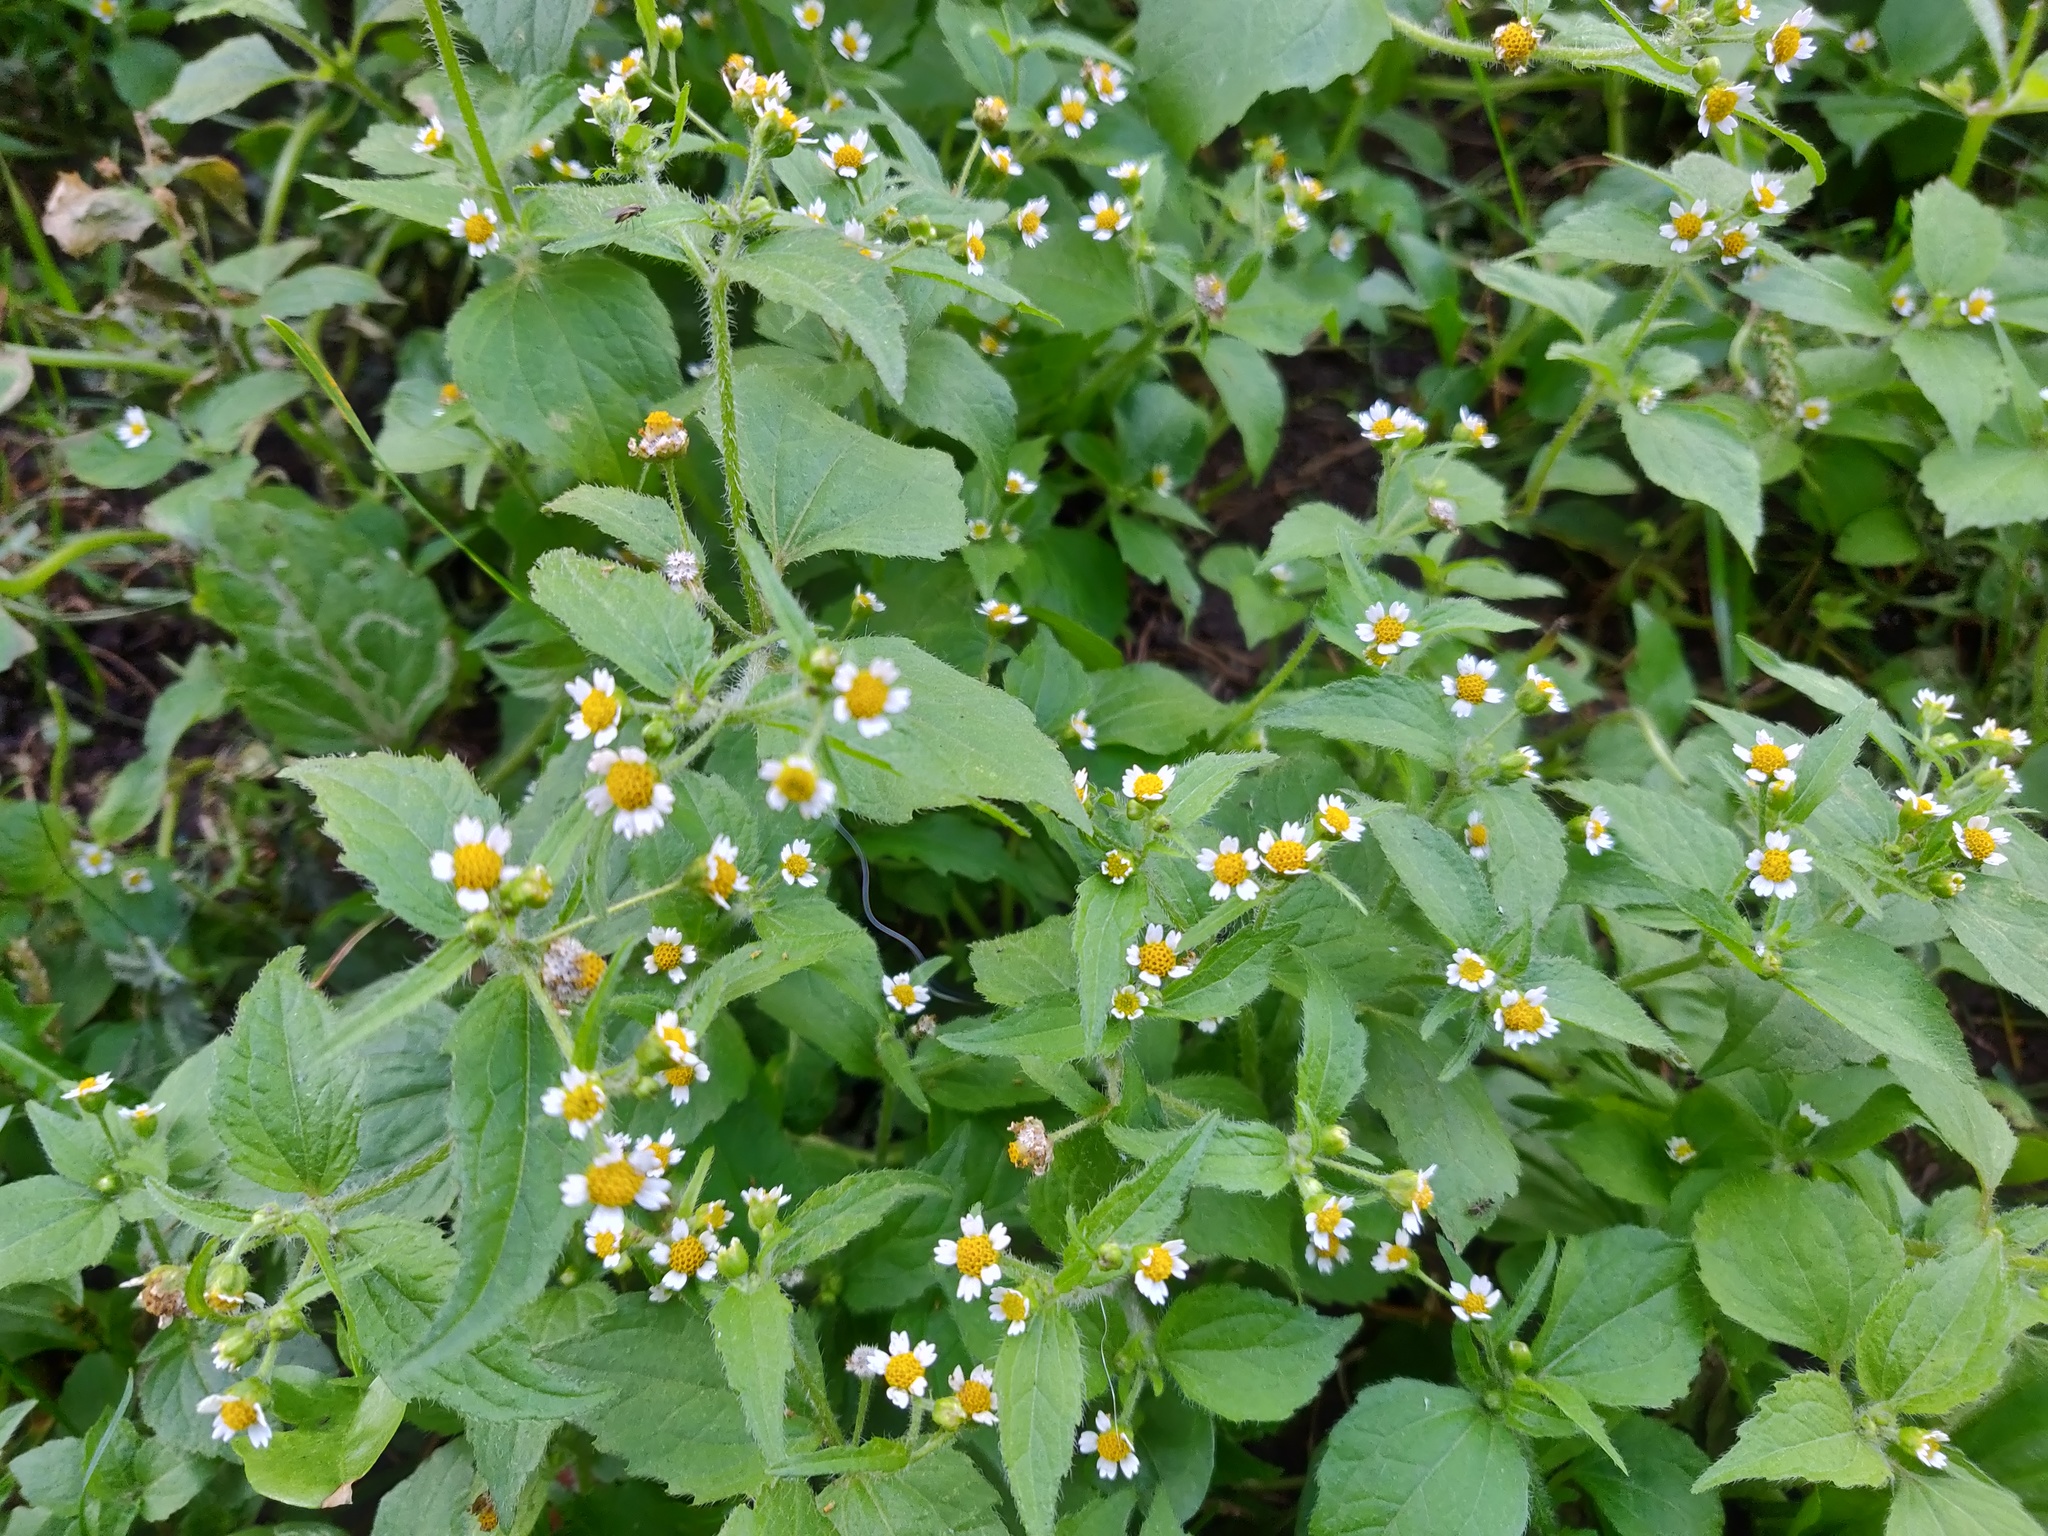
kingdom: Plantae
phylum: Tracheophyta
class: Magnoliopsida
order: Asterales
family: Asteraceae
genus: Galinsoga
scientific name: Galinsoga quadriradiata
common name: Shaggy soldier
